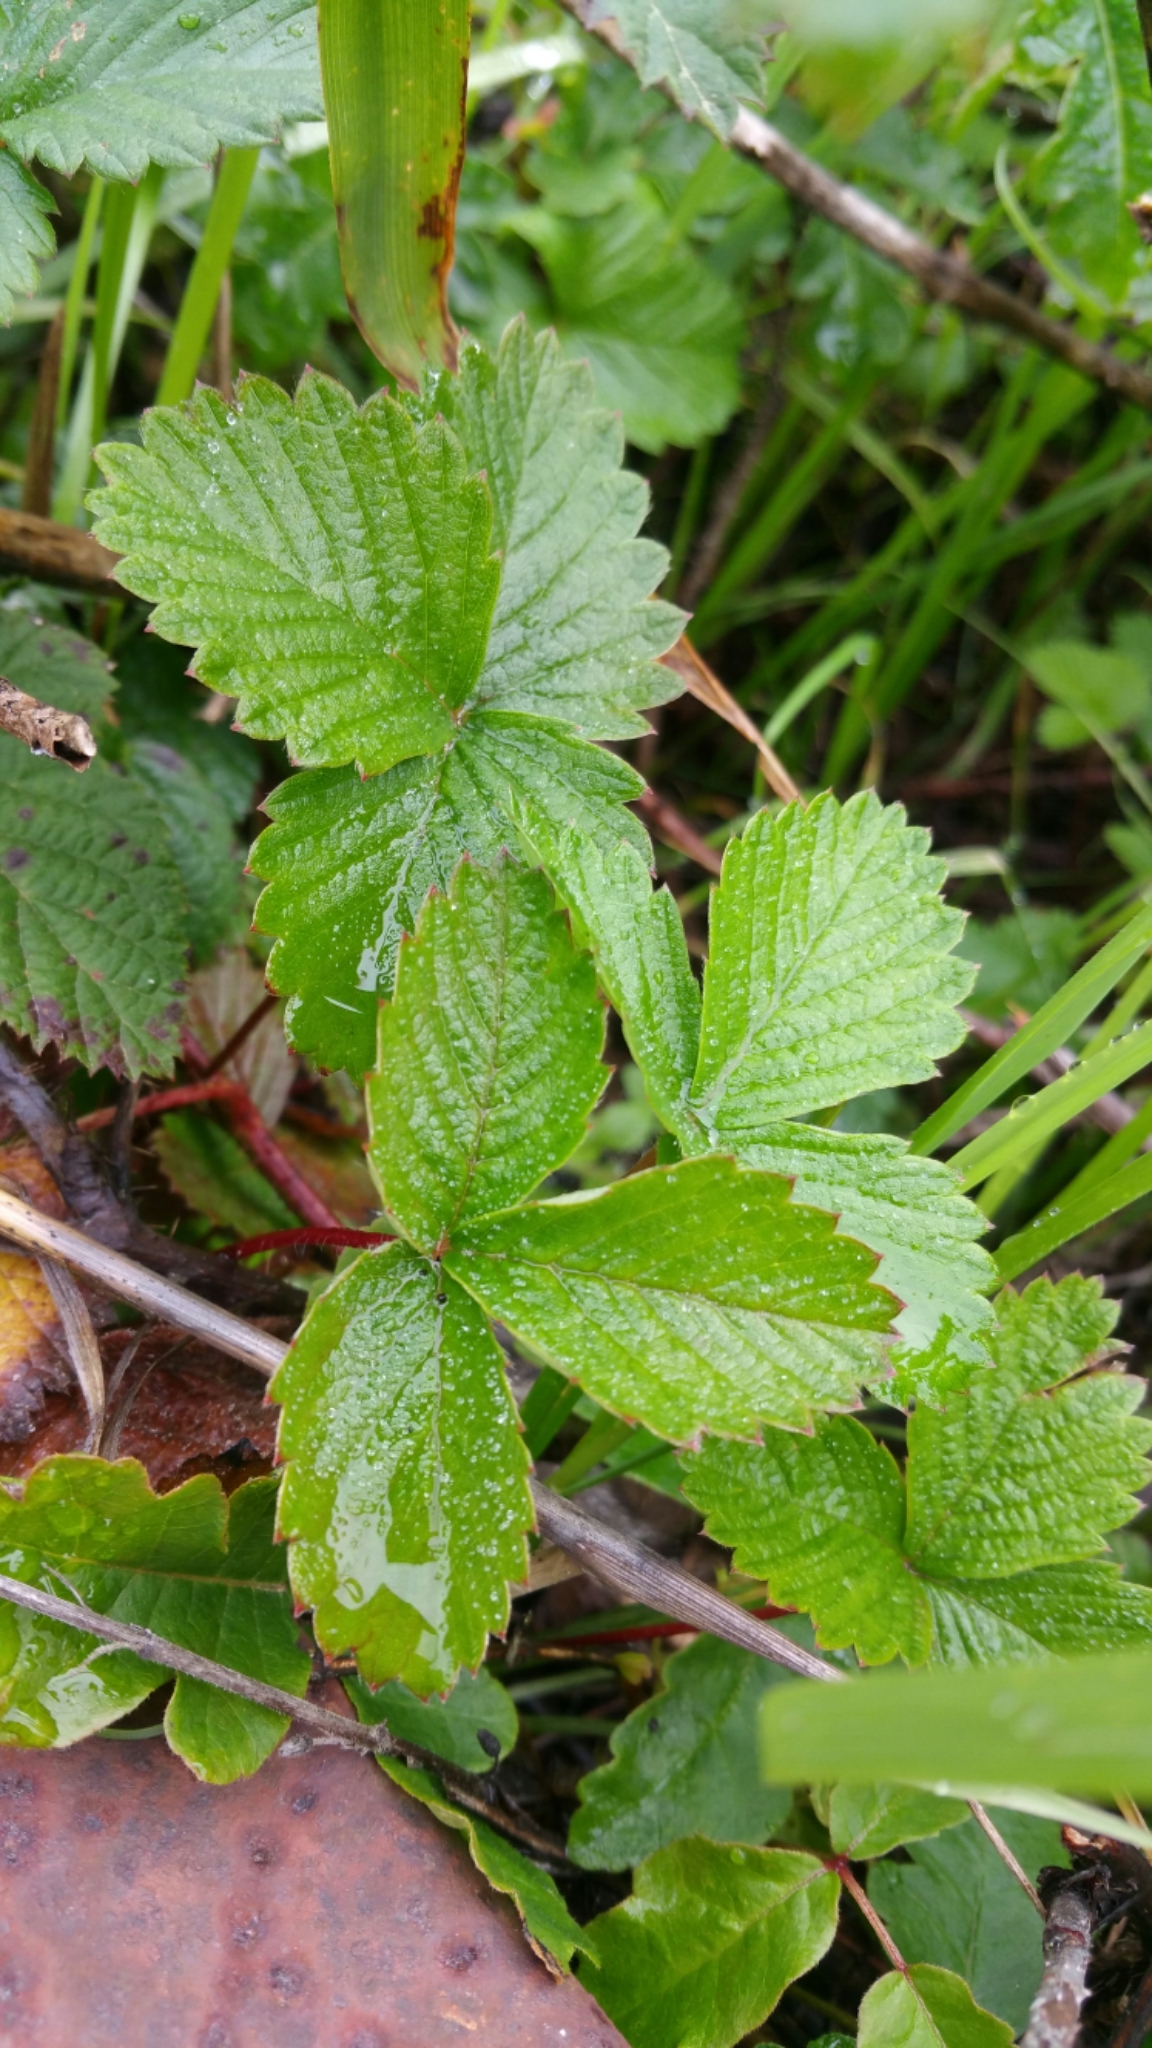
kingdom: Plantae
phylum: Tracheophyta
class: Magnoliopsida
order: Rosales
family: Rosaceae
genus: Fragaria
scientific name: Fragaria vesca
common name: Wild strawberry
